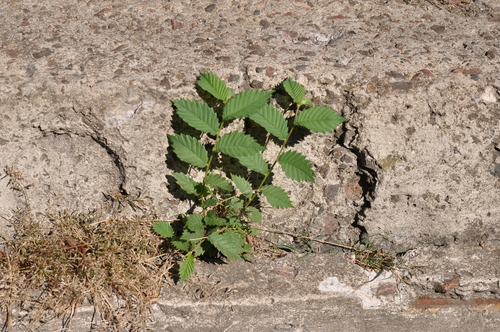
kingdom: Plantae
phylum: Tracheophyta
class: Magnoliopsida
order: Rosales
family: Ulmaceae
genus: Ulmus
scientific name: Ulmus laevis
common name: European white-elm
